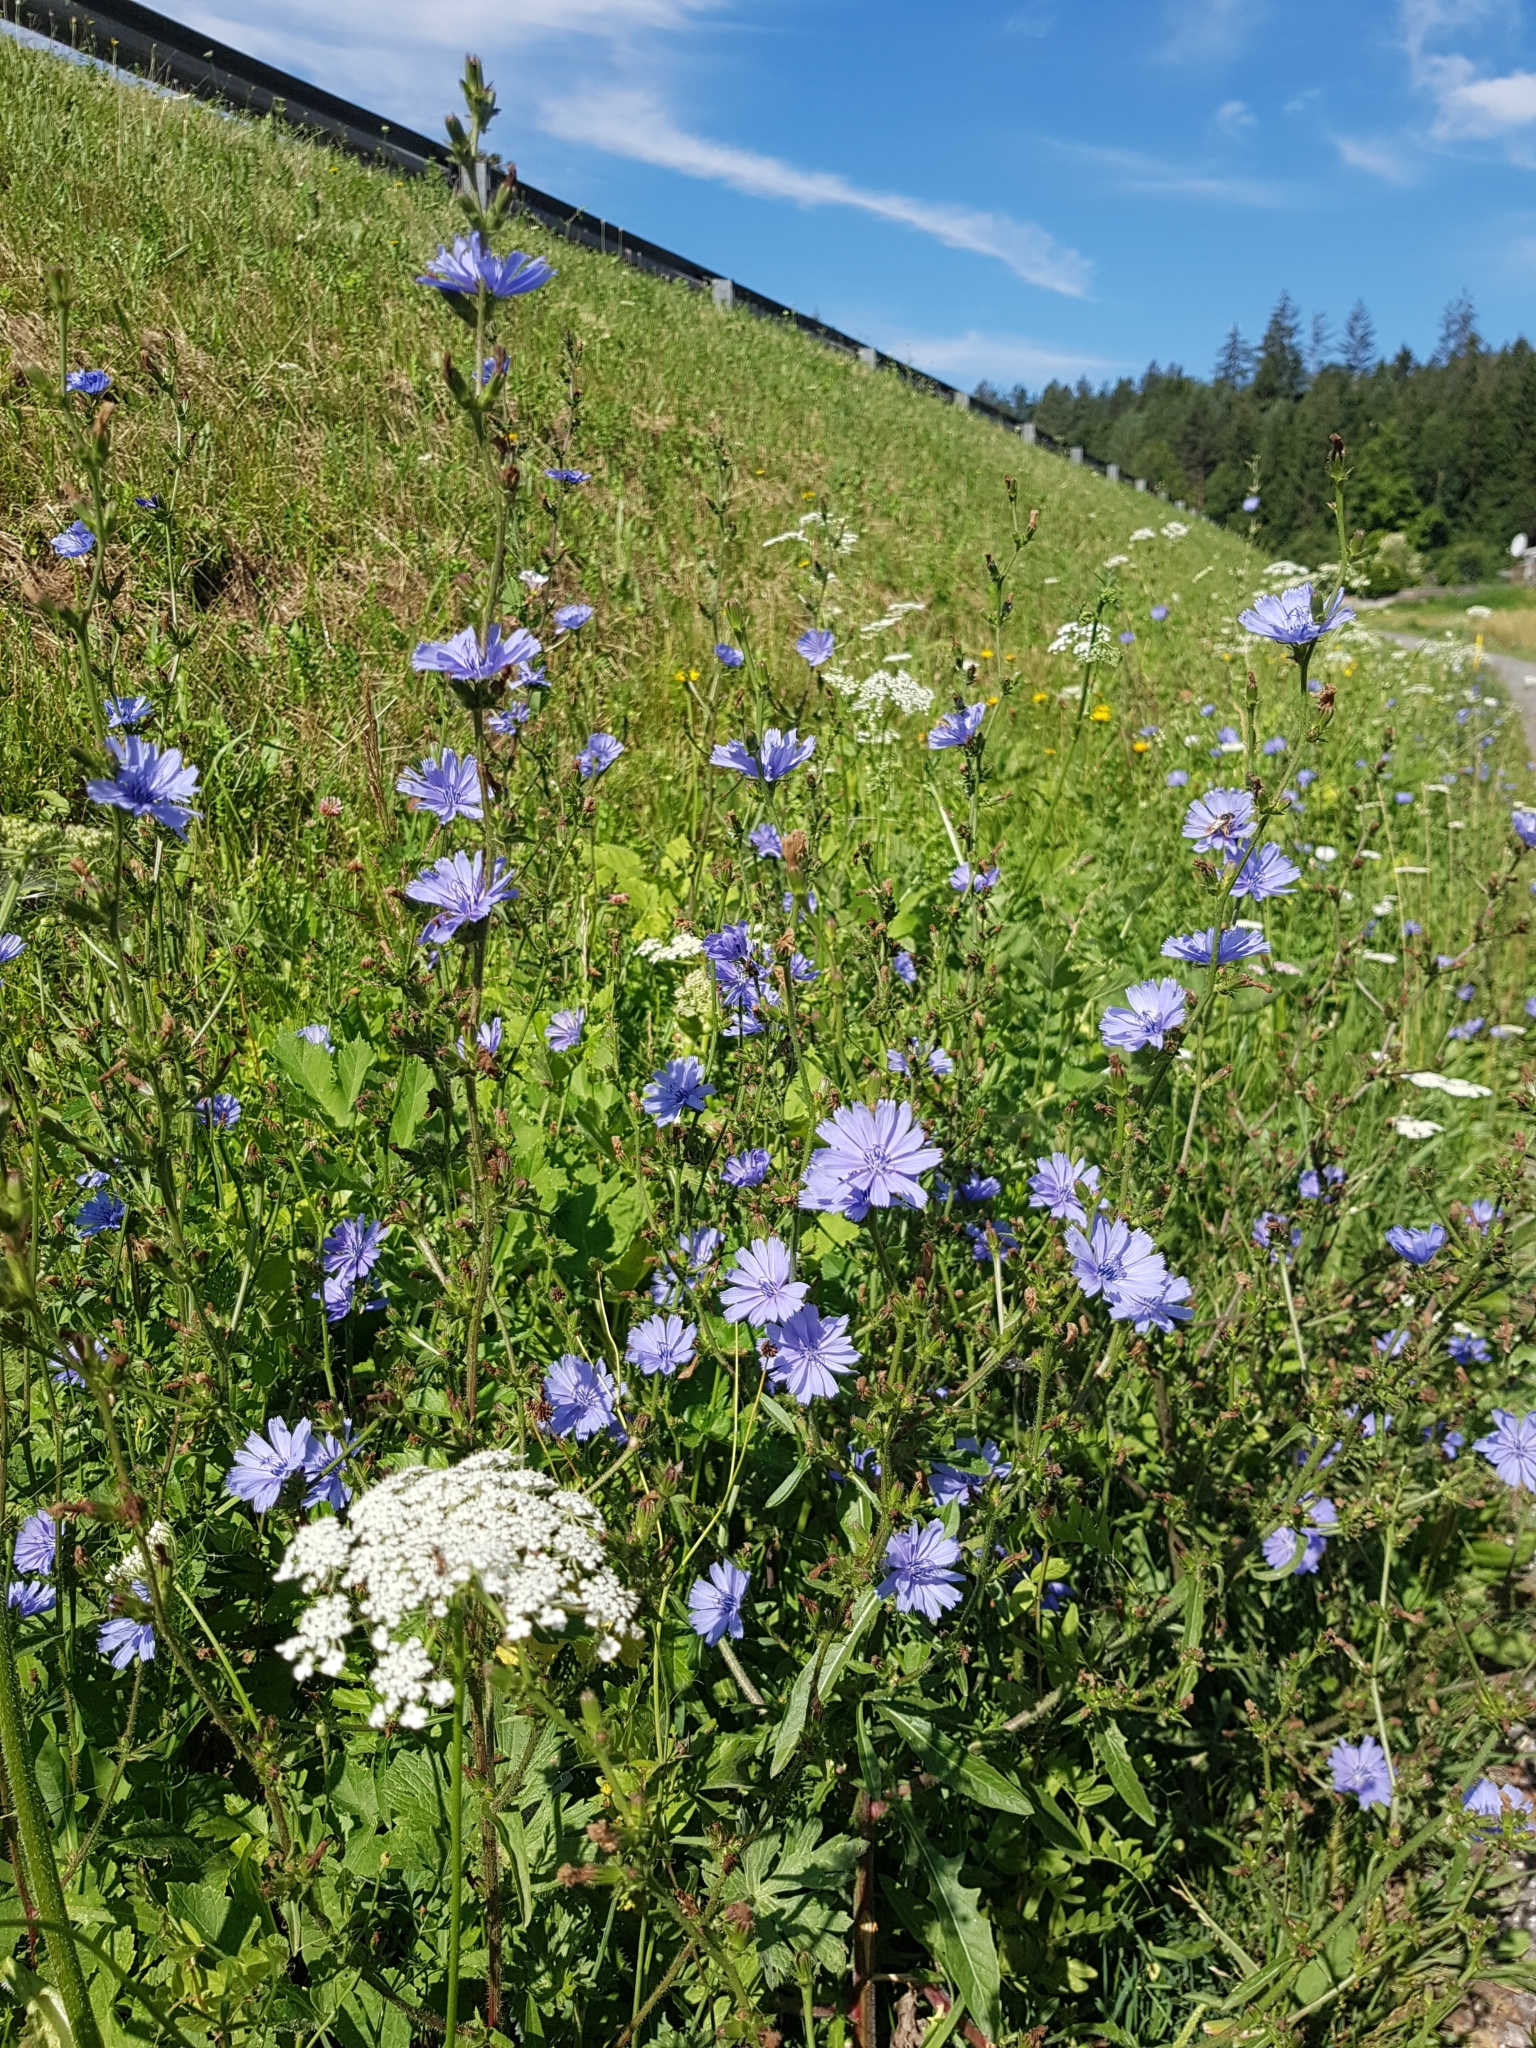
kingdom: Plantae
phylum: Tracheophyta
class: Magnoliopsida
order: Asterales
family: Asteraceae
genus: Cichorium
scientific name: Cichorium intybus
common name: Chicory
